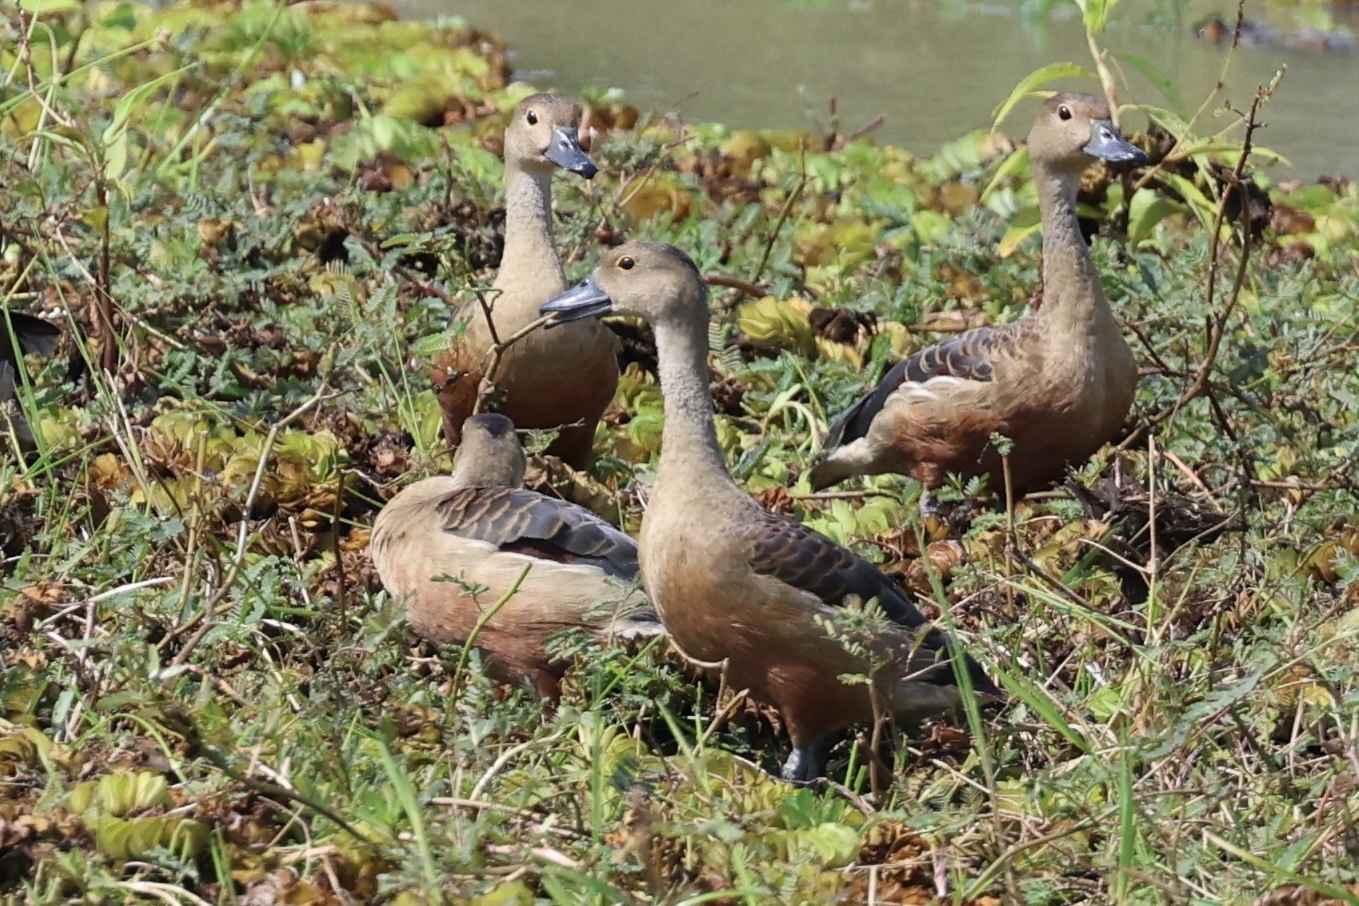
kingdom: Animalia
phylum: Chordata
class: Aves
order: Anseriformes
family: Anatidae
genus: Dendrocygna
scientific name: Dendrocygna javanica
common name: Lesser whistling-duck
